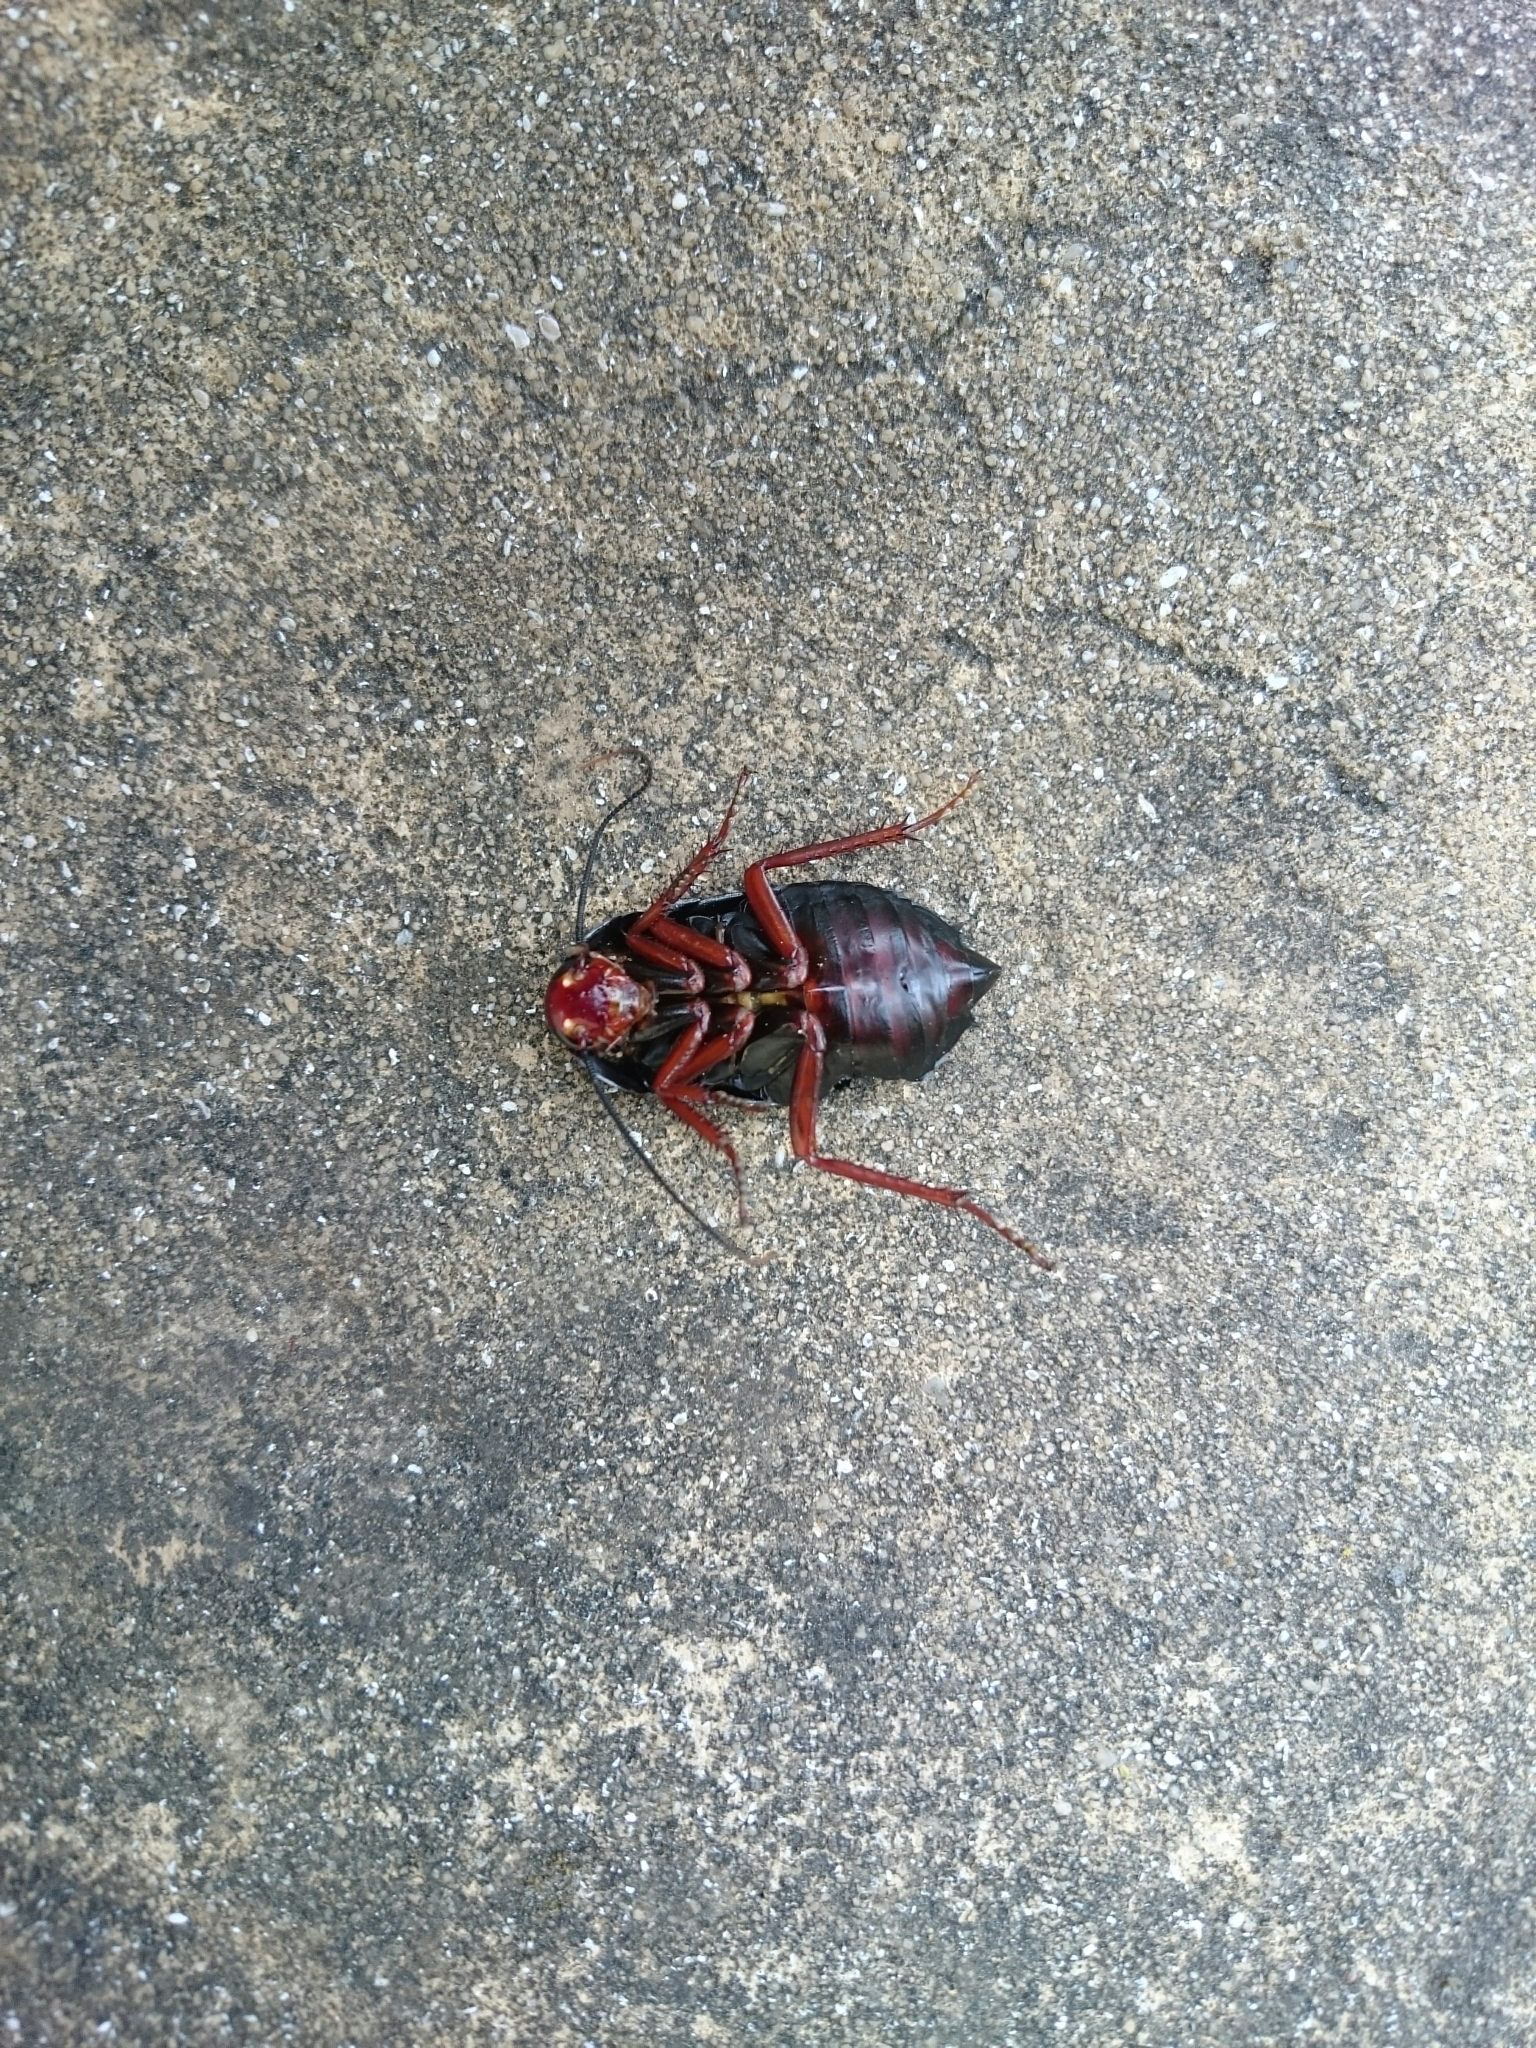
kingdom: Animalia
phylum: Arthropoda
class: Insecta
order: Blattodea
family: Blattidae
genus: Deropeltis
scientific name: Deropeltis erythrocephala
